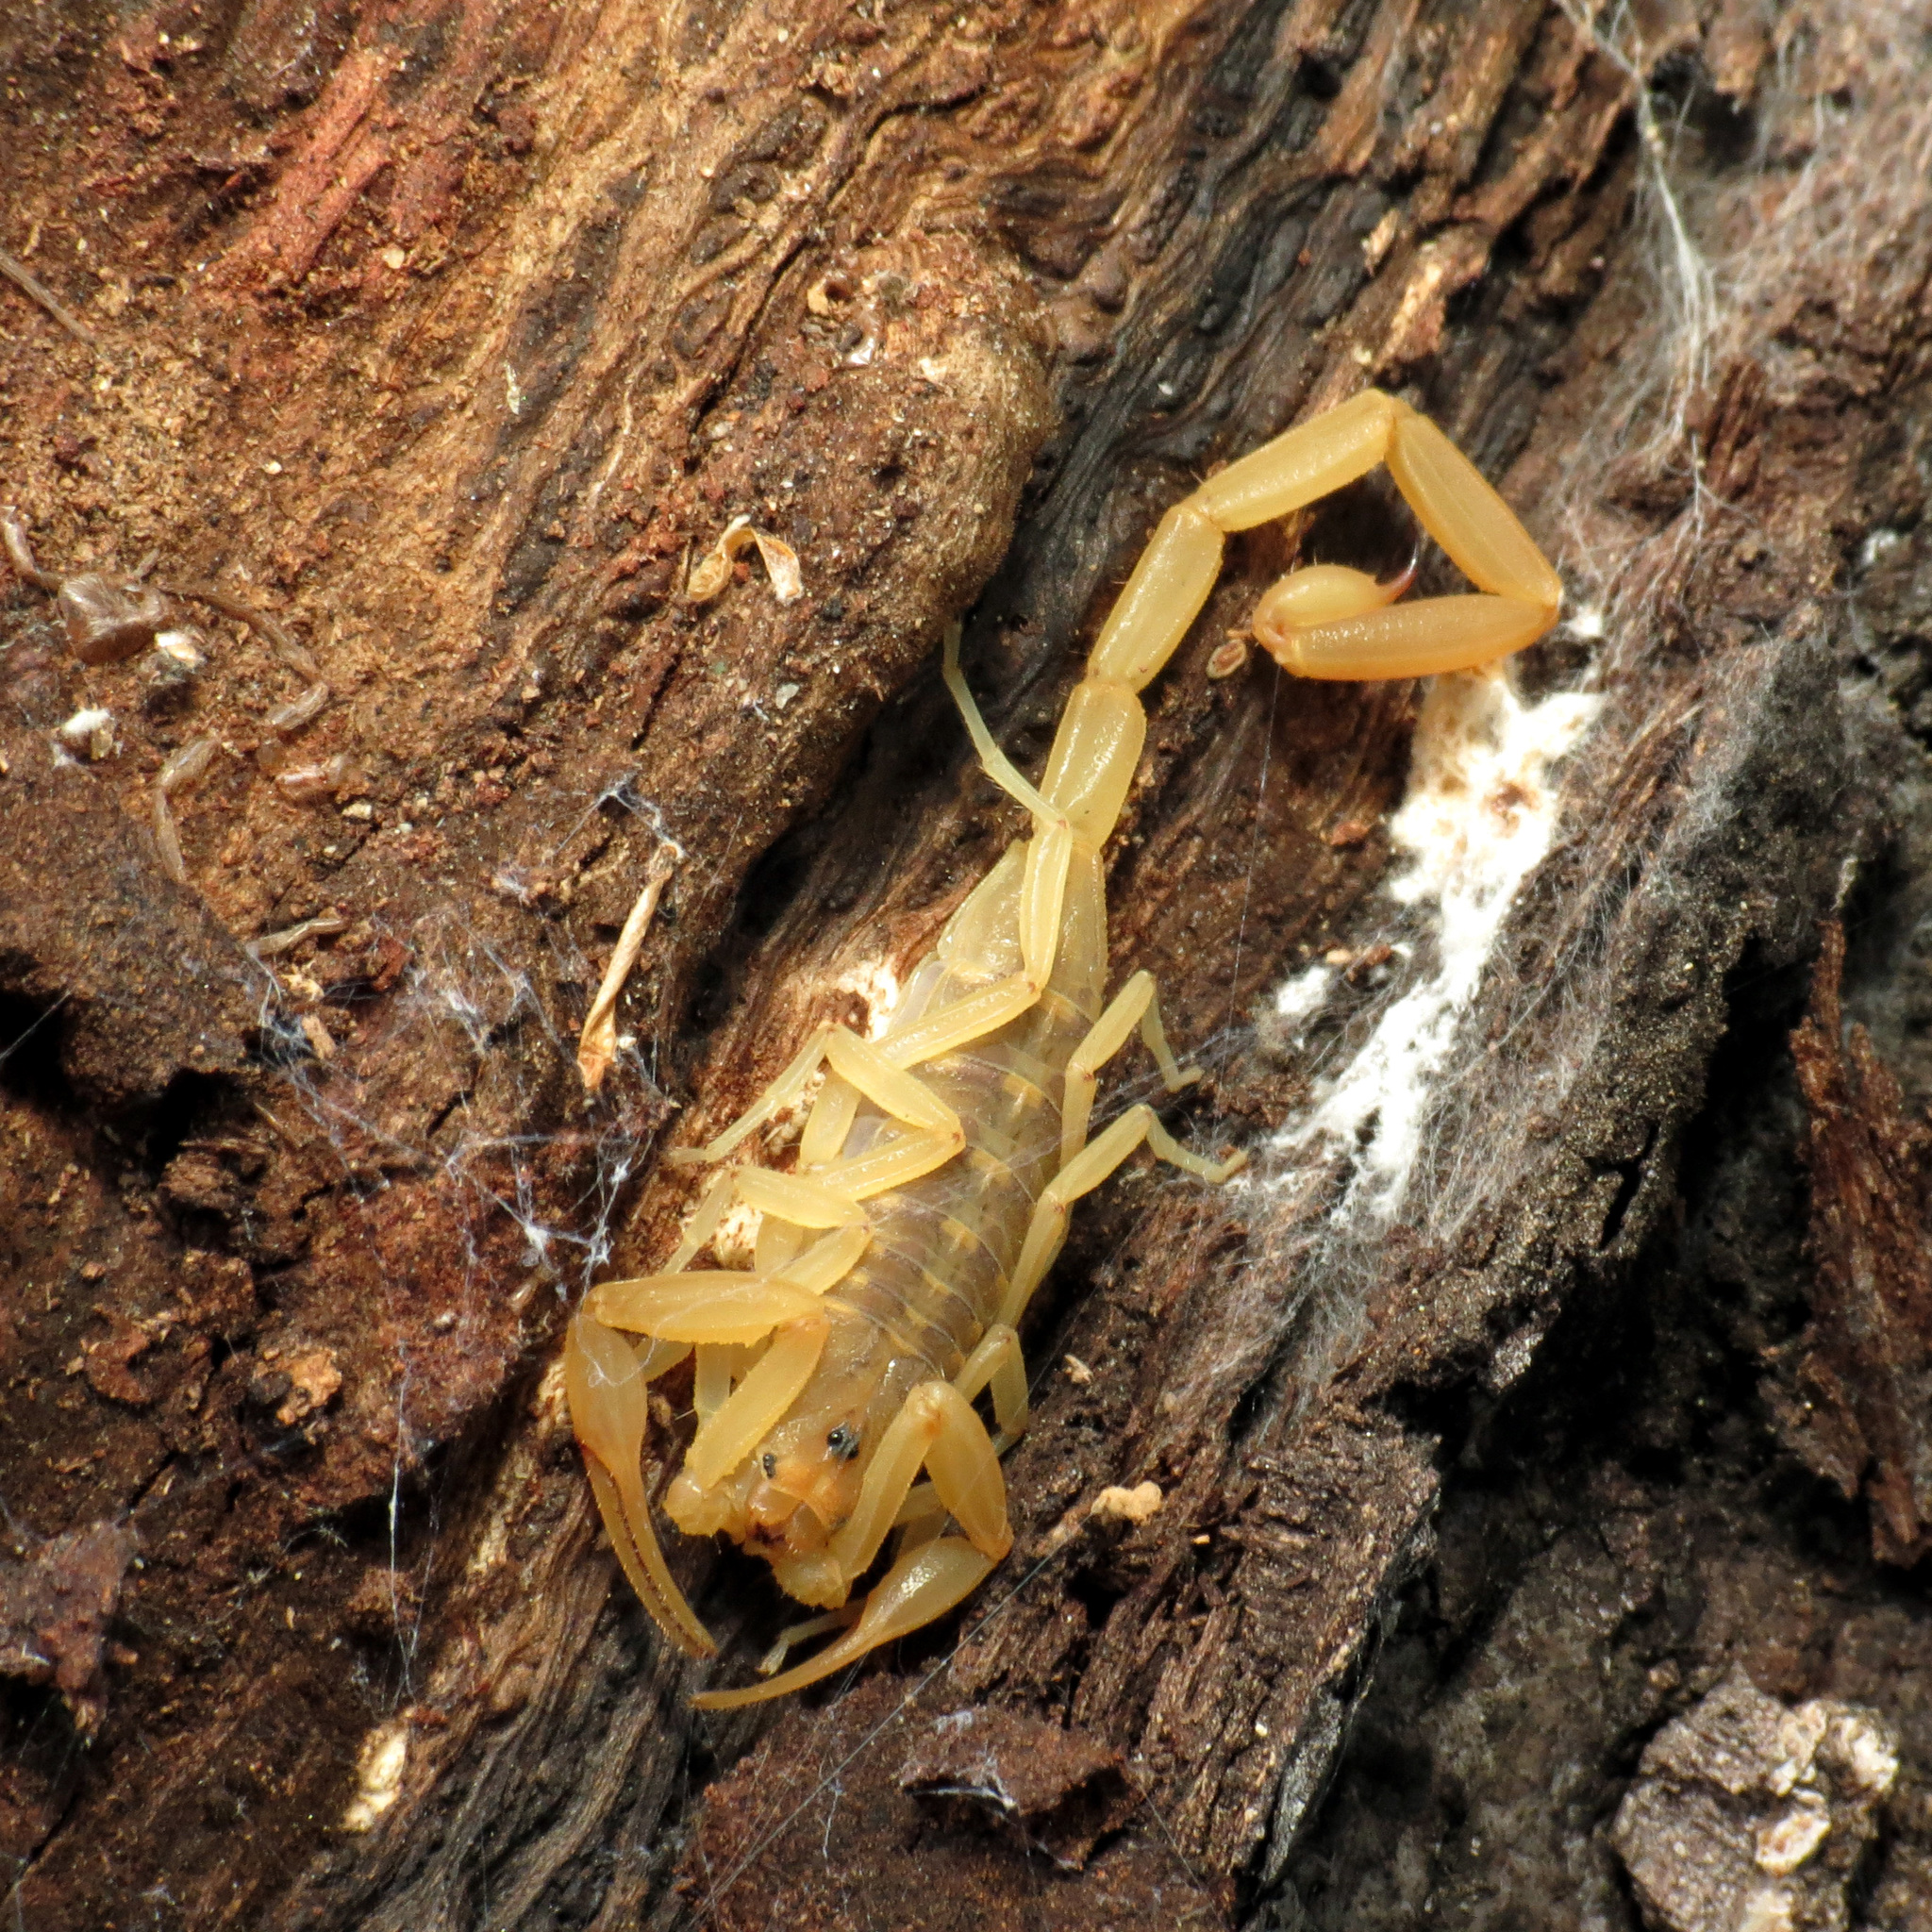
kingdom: Animalia
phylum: Arthropoda
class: Arachnida
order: Scorpiones
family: Buthidae
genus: Centruroides
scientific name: Centruroides sculpturatus
